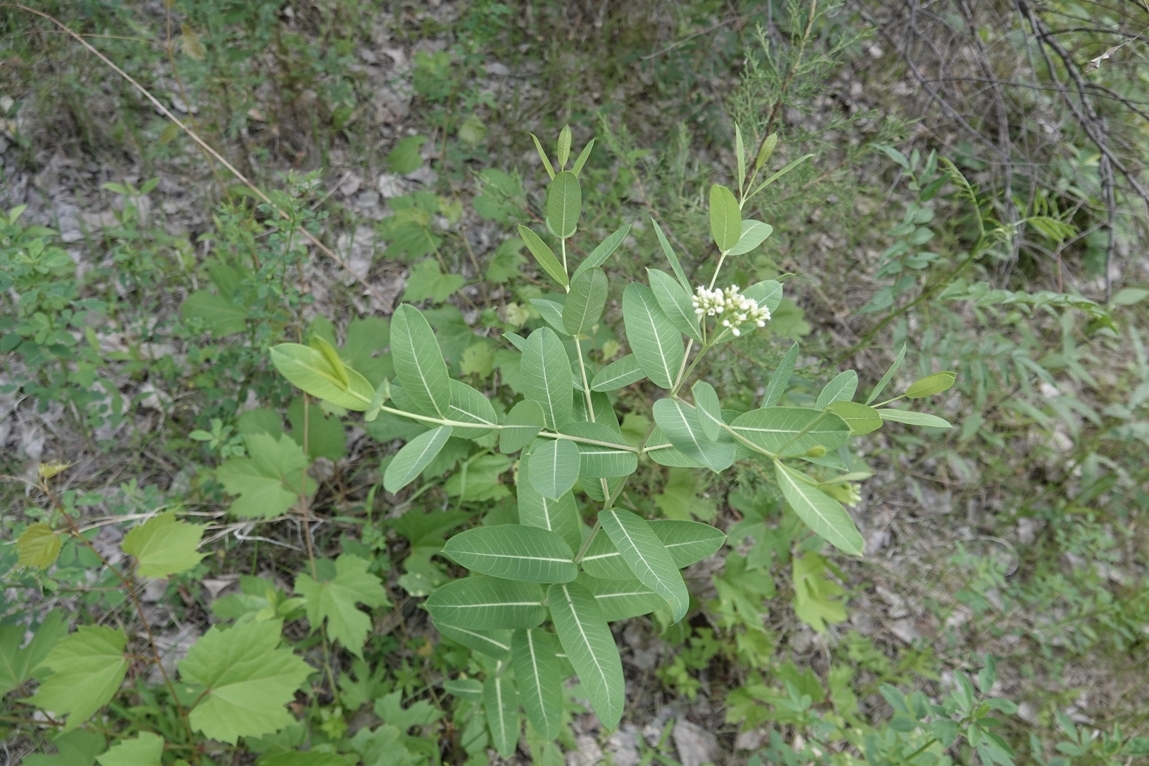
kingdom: Plantae
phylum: Tracheophyta
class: Magnoliopsida
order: Gentianales
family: Apocynaceae
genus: Apocynum
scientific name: Apocynum cannabinum
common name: Hemp dogbane
